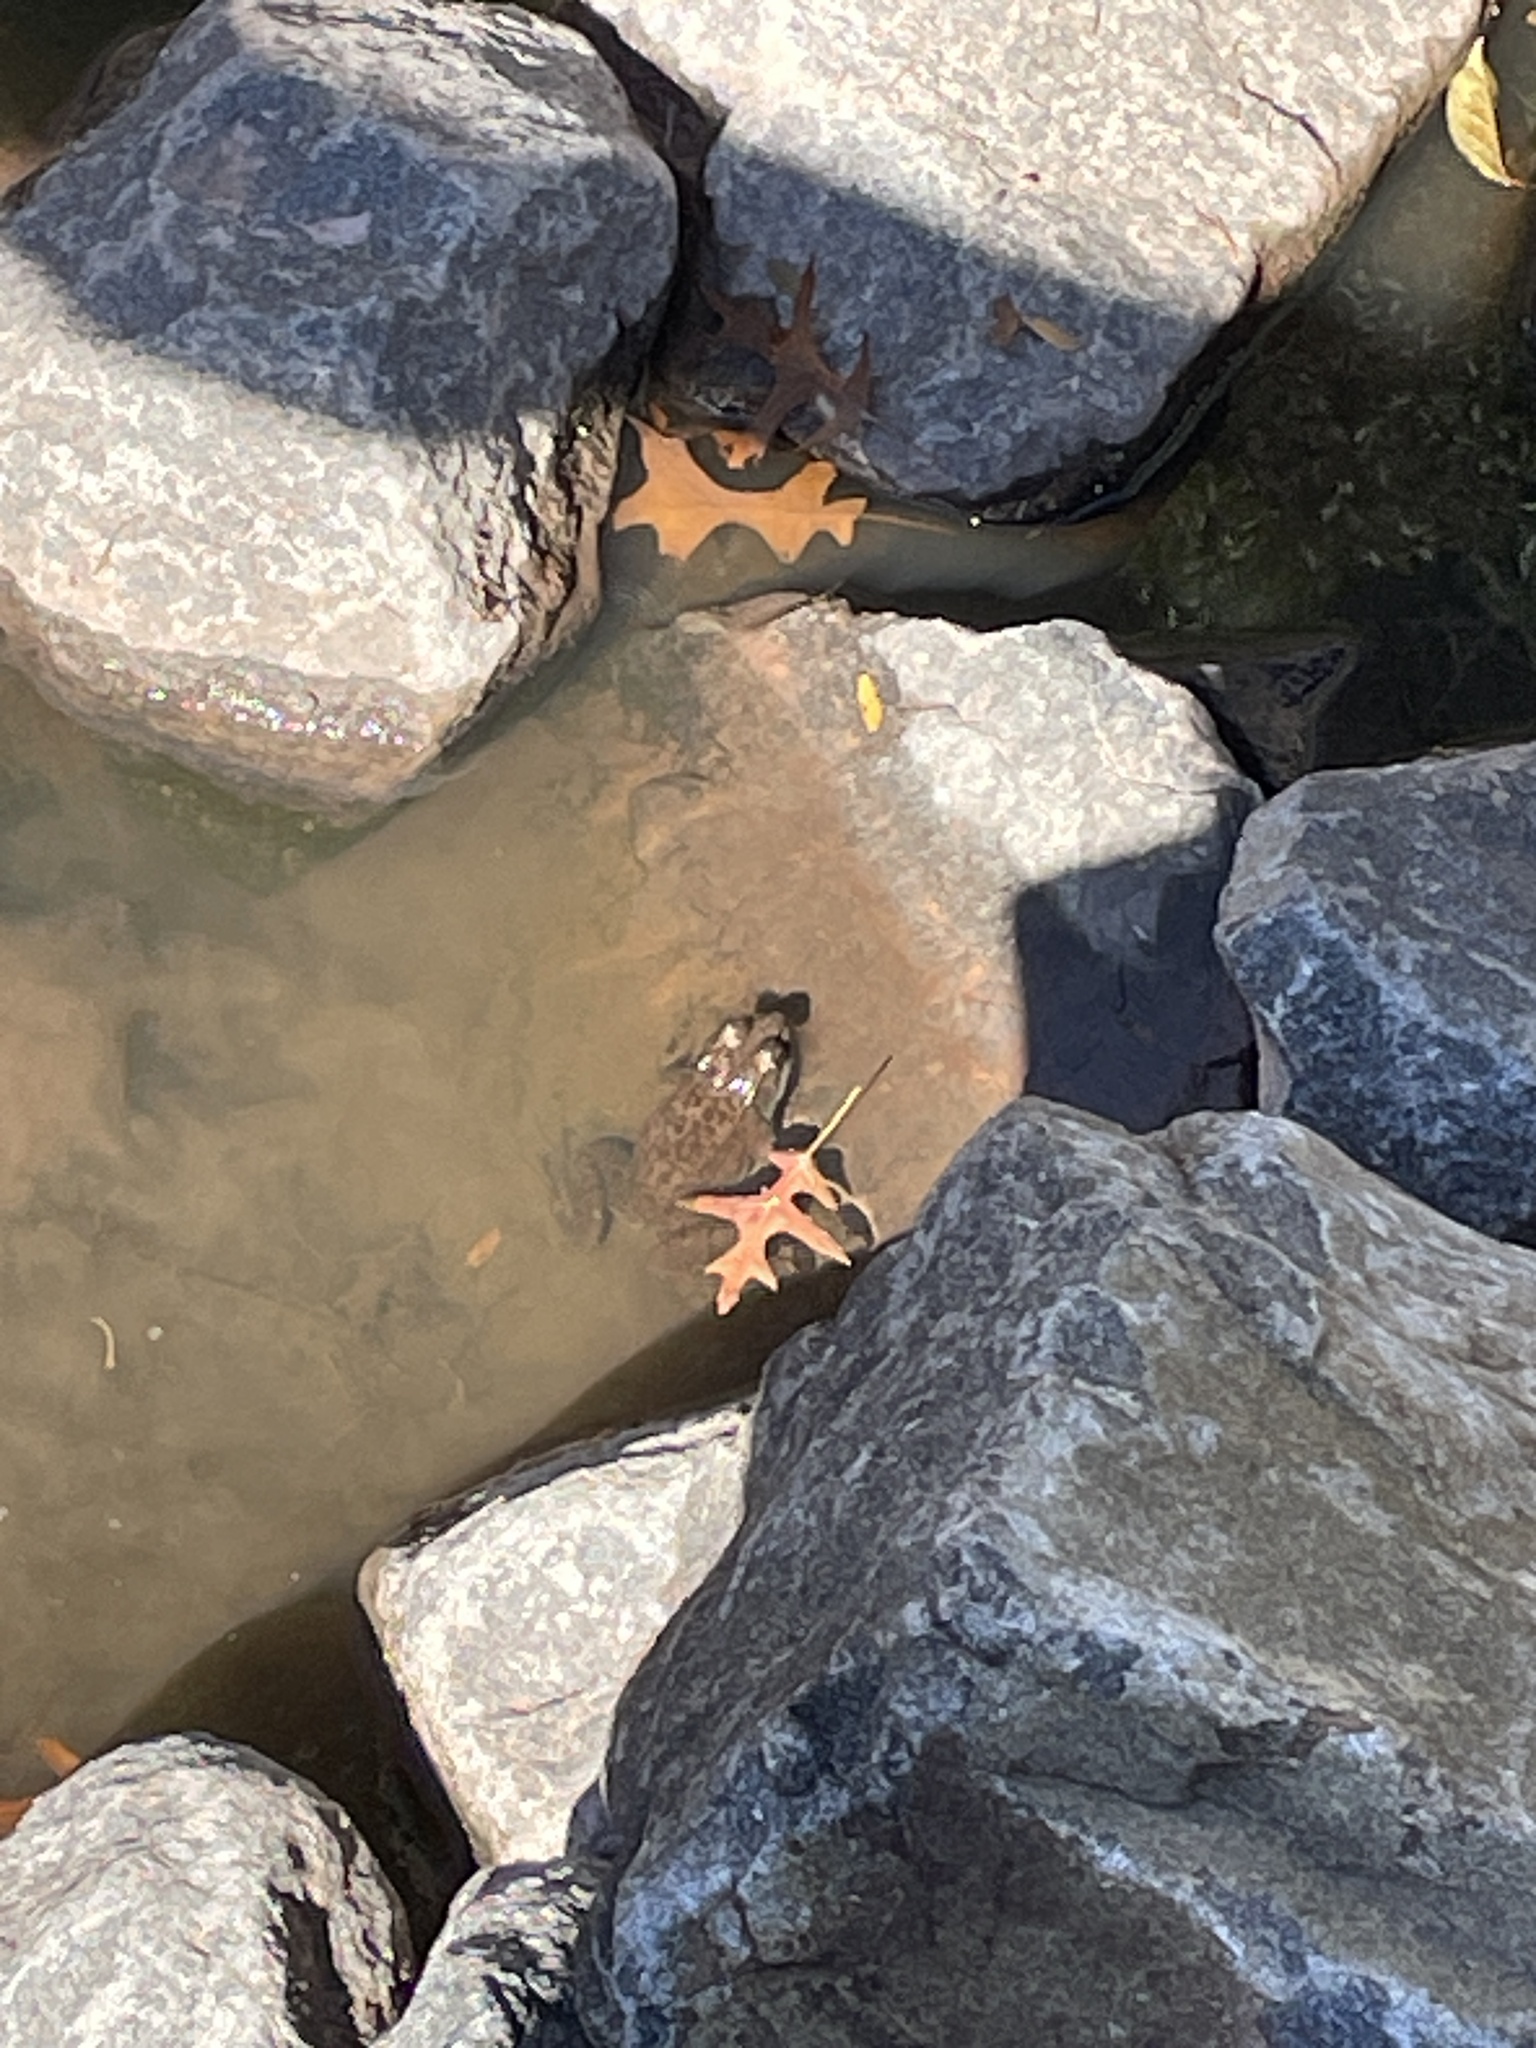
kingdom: Animalia
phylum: Chordata
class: Amphibia
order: Anura
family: Ranidae
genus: Lithobates
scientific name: Lithobates clamitans
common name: Green frog
